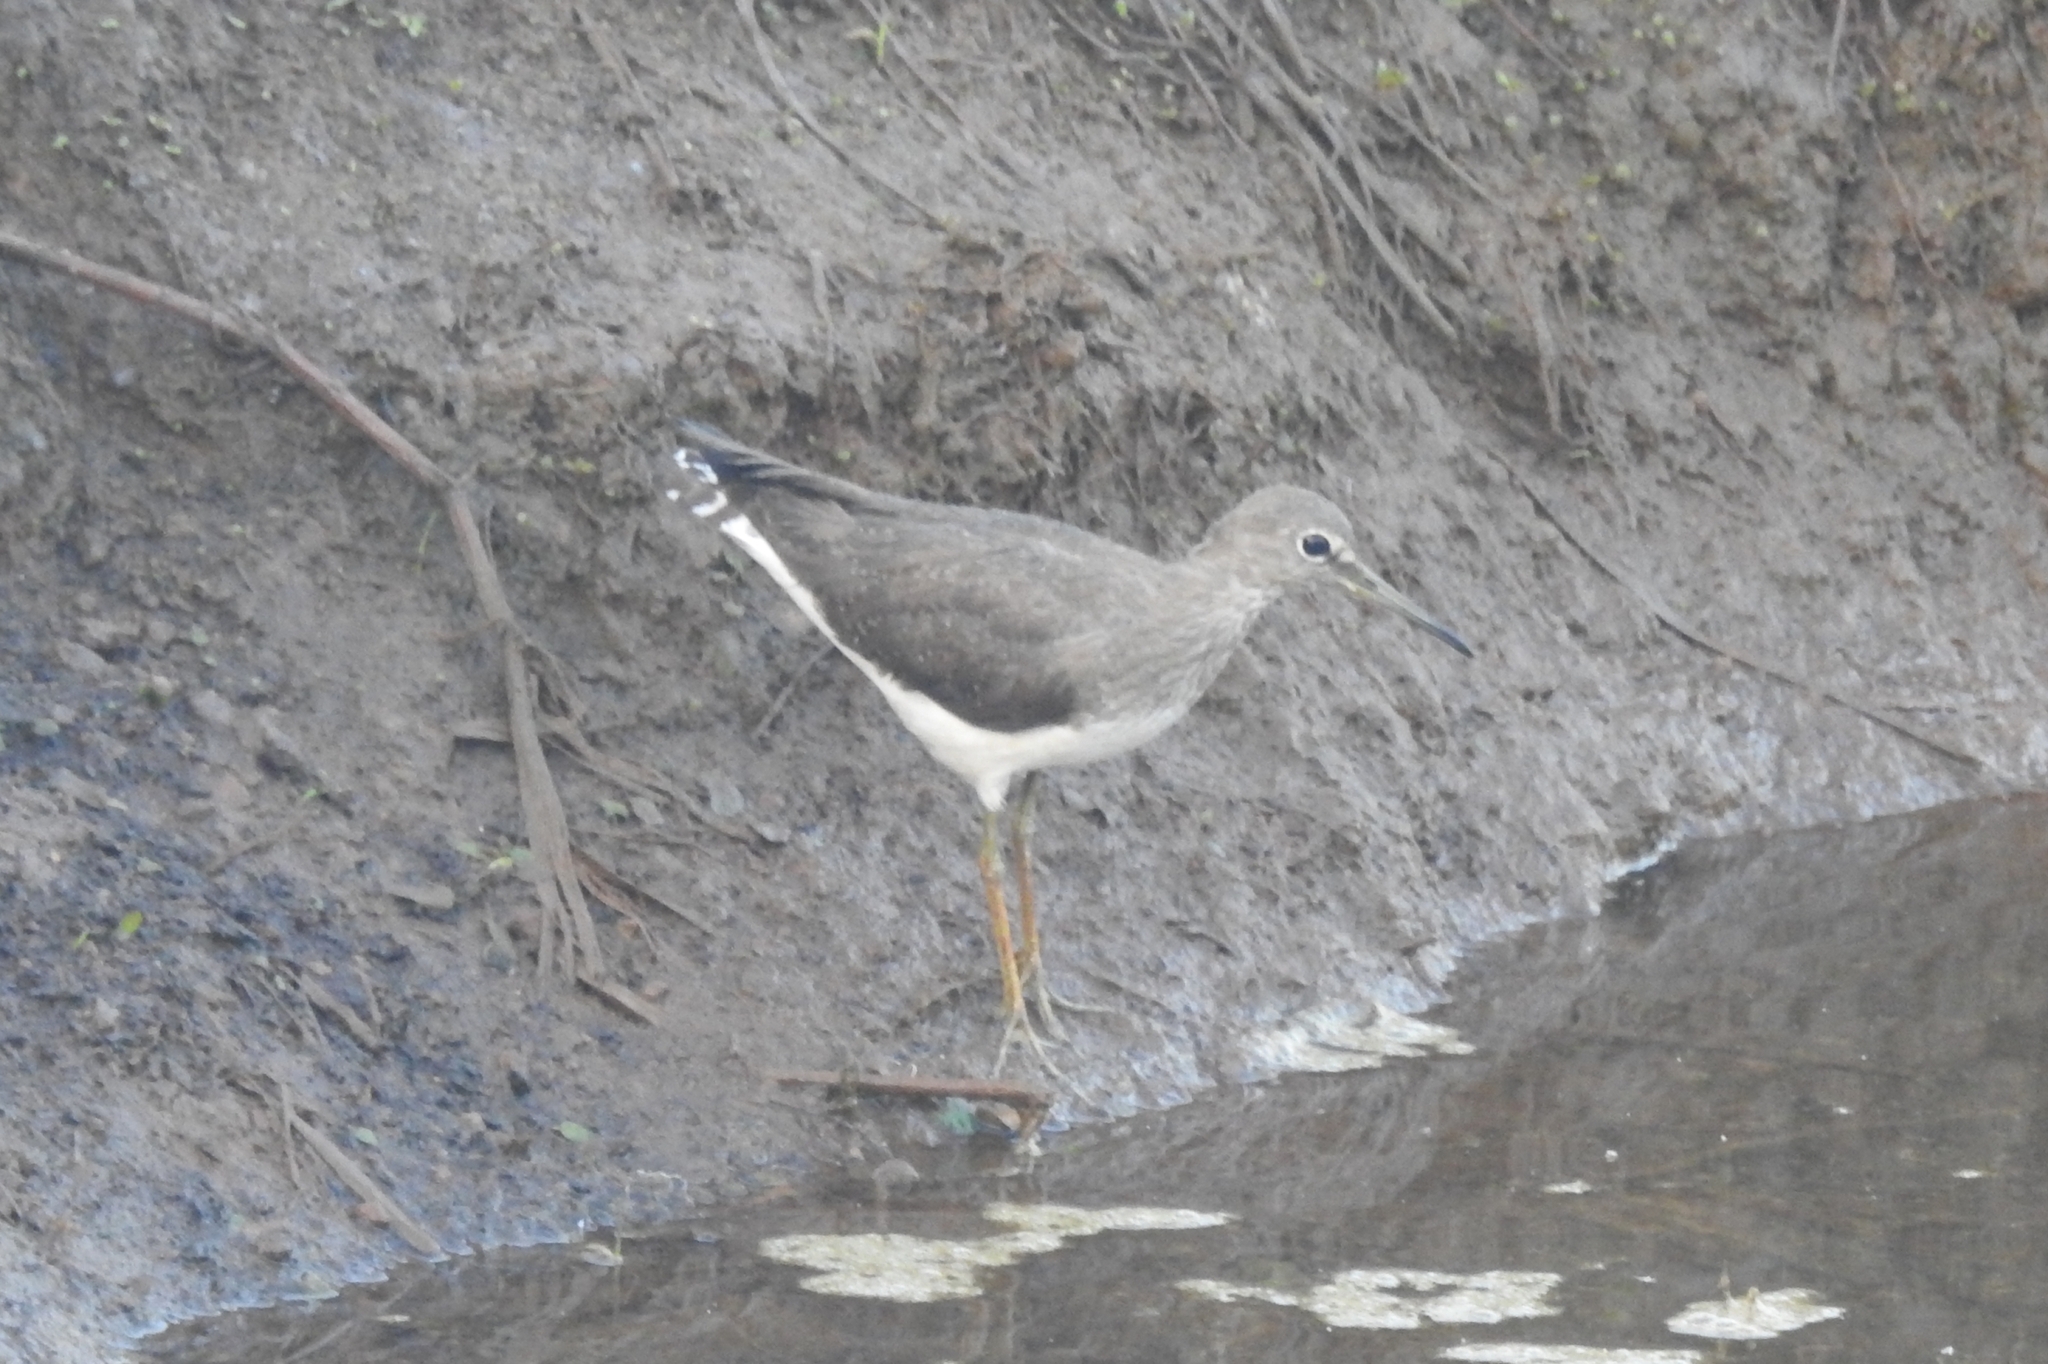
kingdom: Animalia
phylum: Chordata
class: Aves
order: Charadriiformes
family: Scolopacidae
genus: Tringa
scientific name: Tringa ochropus
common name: Green sandpiper
